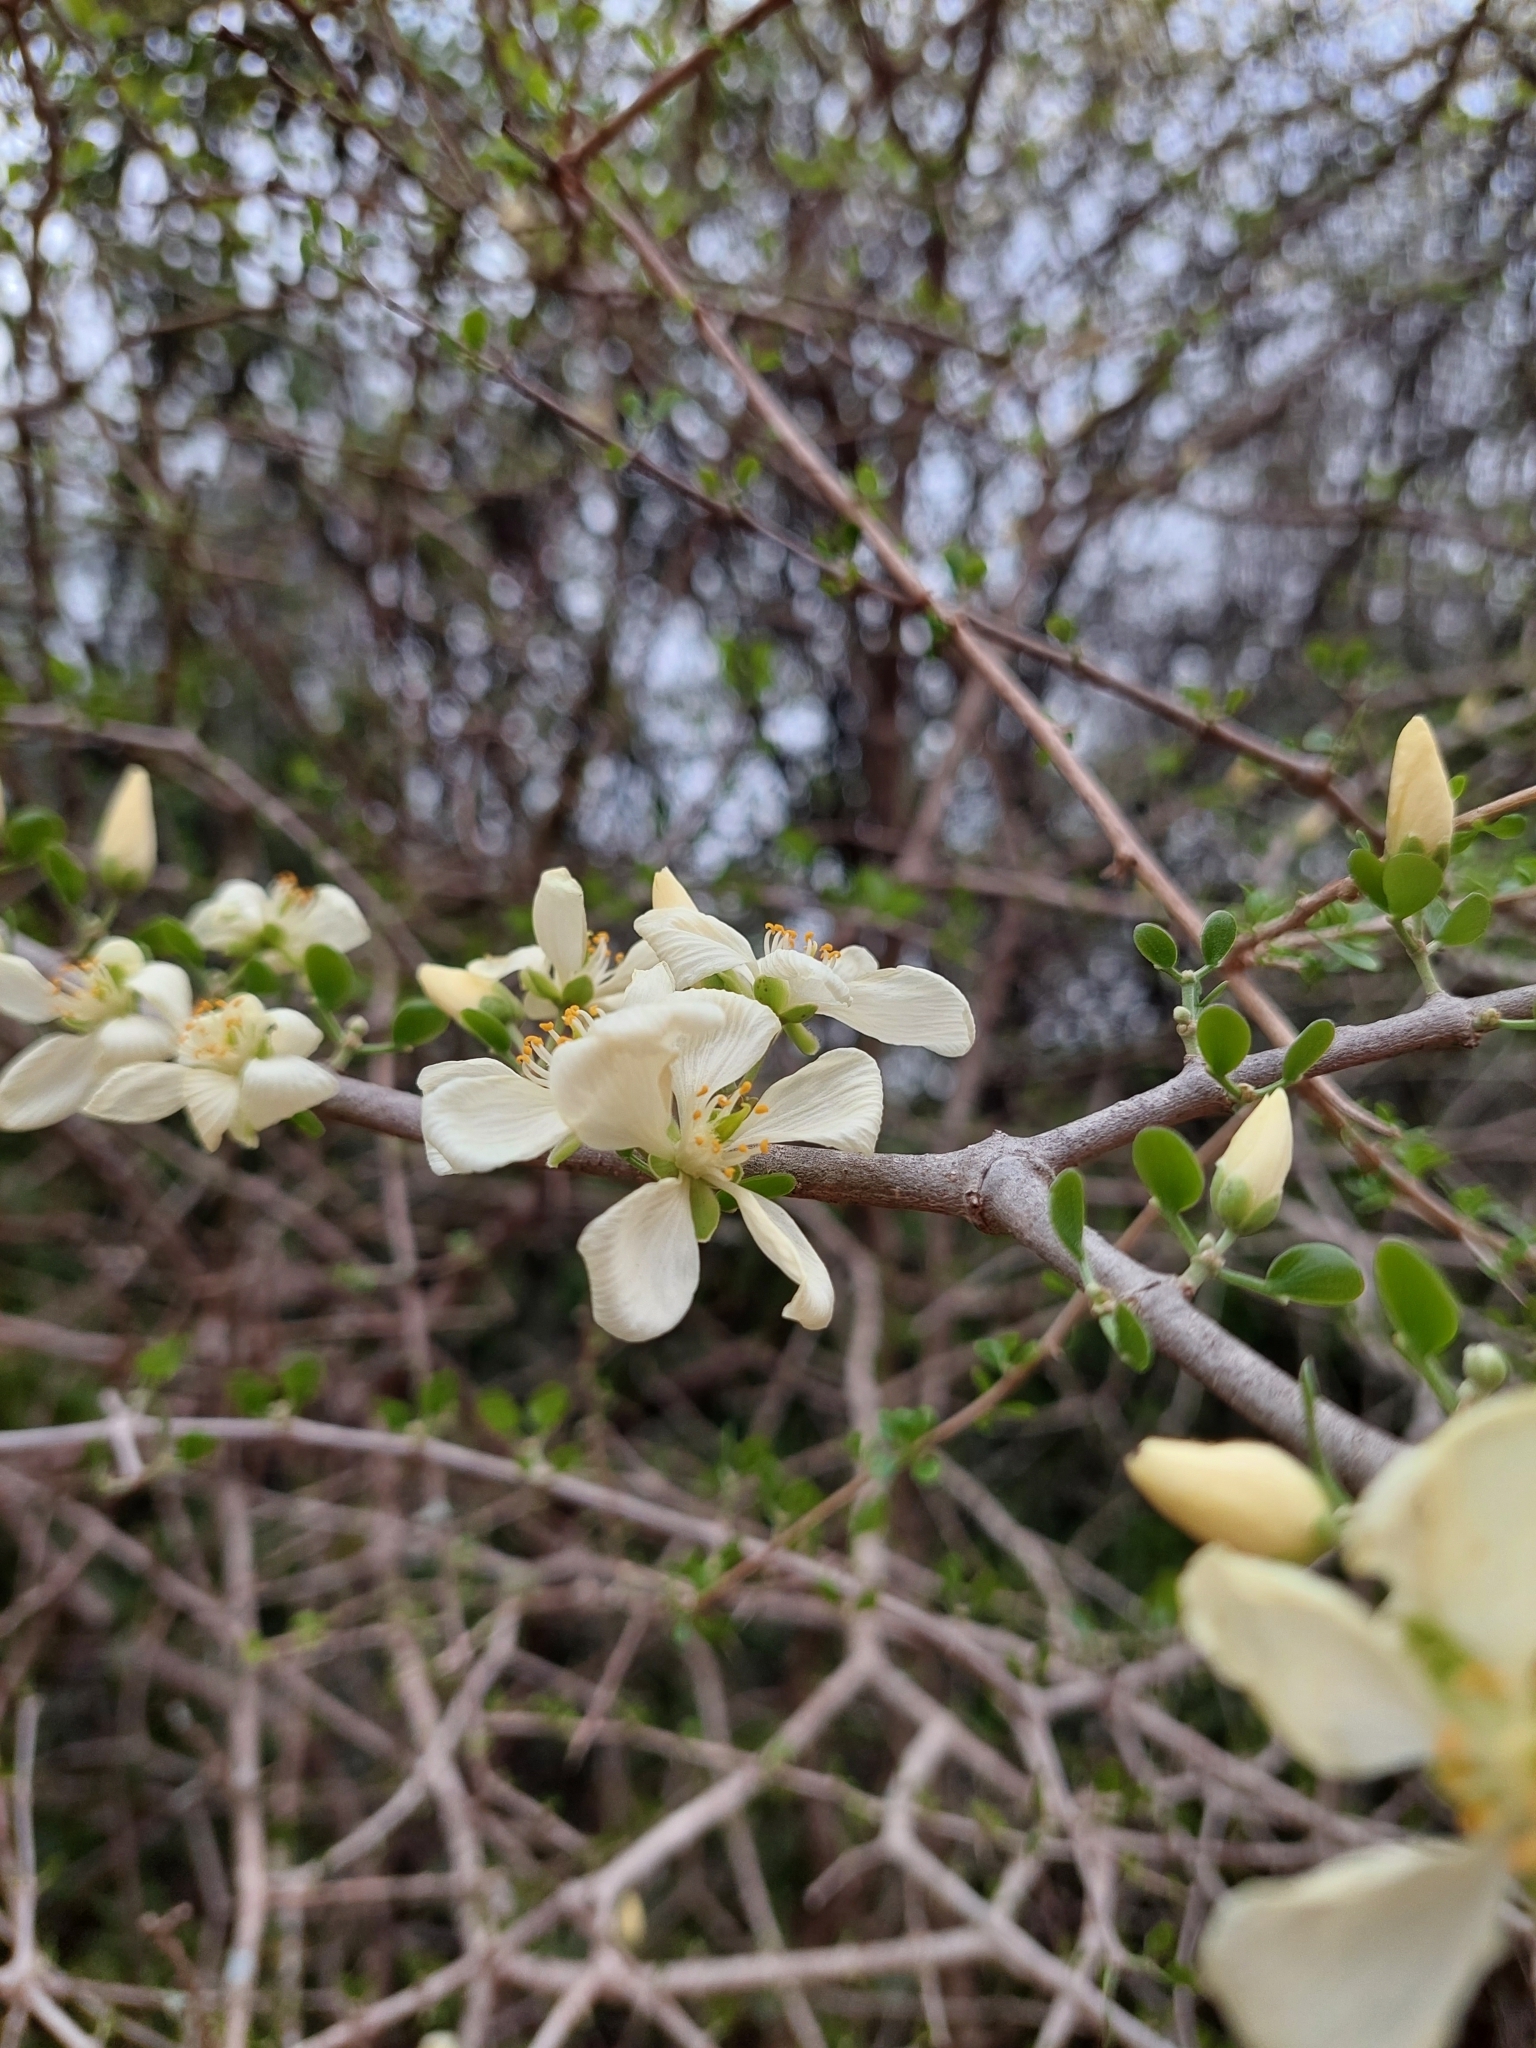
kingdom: Plantae
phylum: Tracheophyta
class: Magnoliopsida
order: Zygophyllales
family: Zygophyllaceae
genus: Gonopterodendron
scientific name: Gonopterodendron sarmientoi
